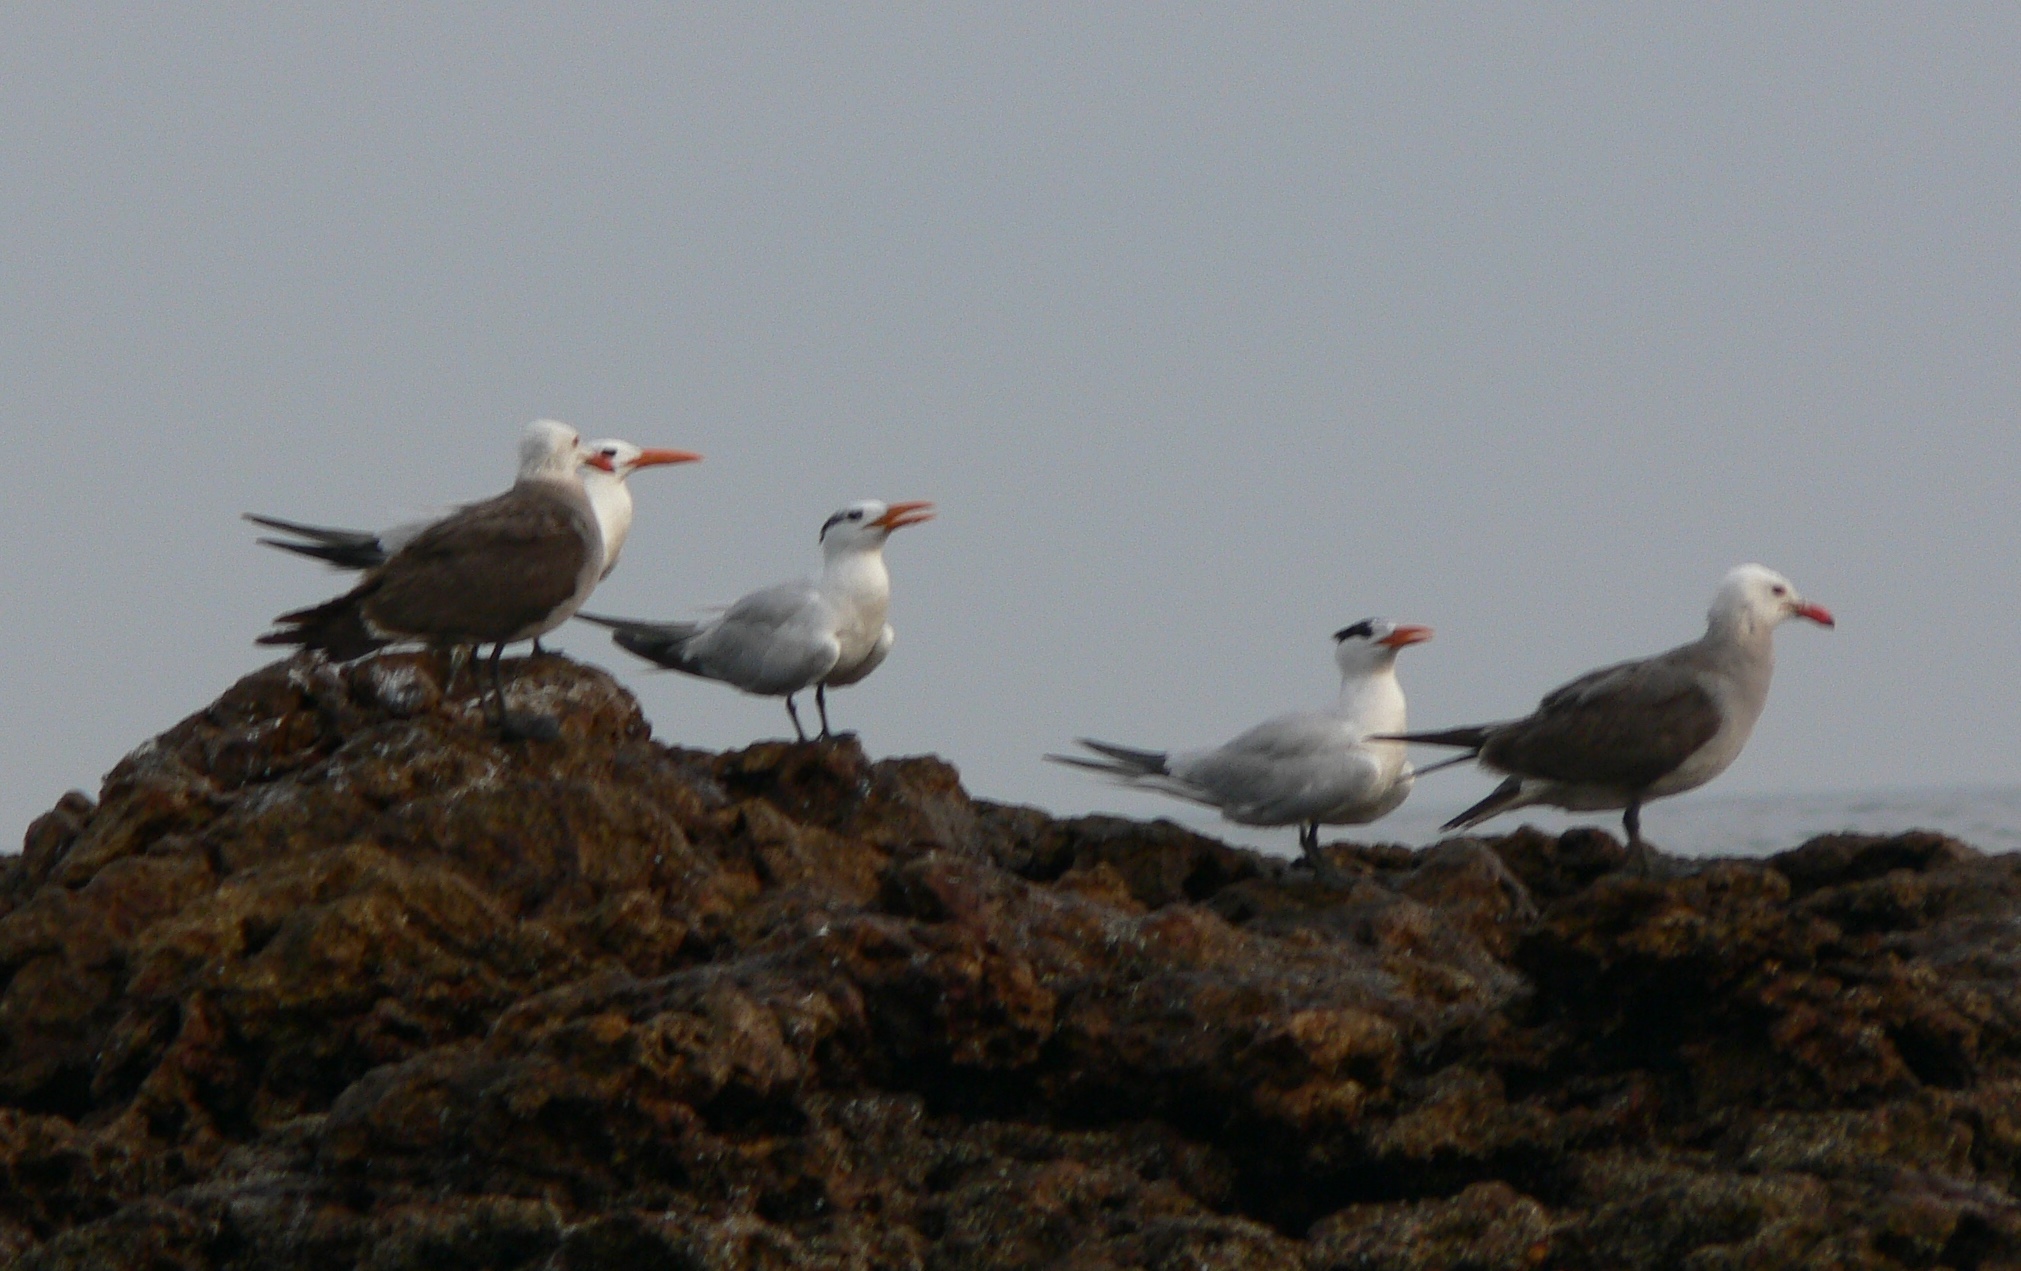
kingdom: Animalia
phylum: Chordata
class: Aves
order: Charadriiformes
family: Laridae
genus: Thalasseus
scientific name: Thalasseus maximus
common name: Royal tern
